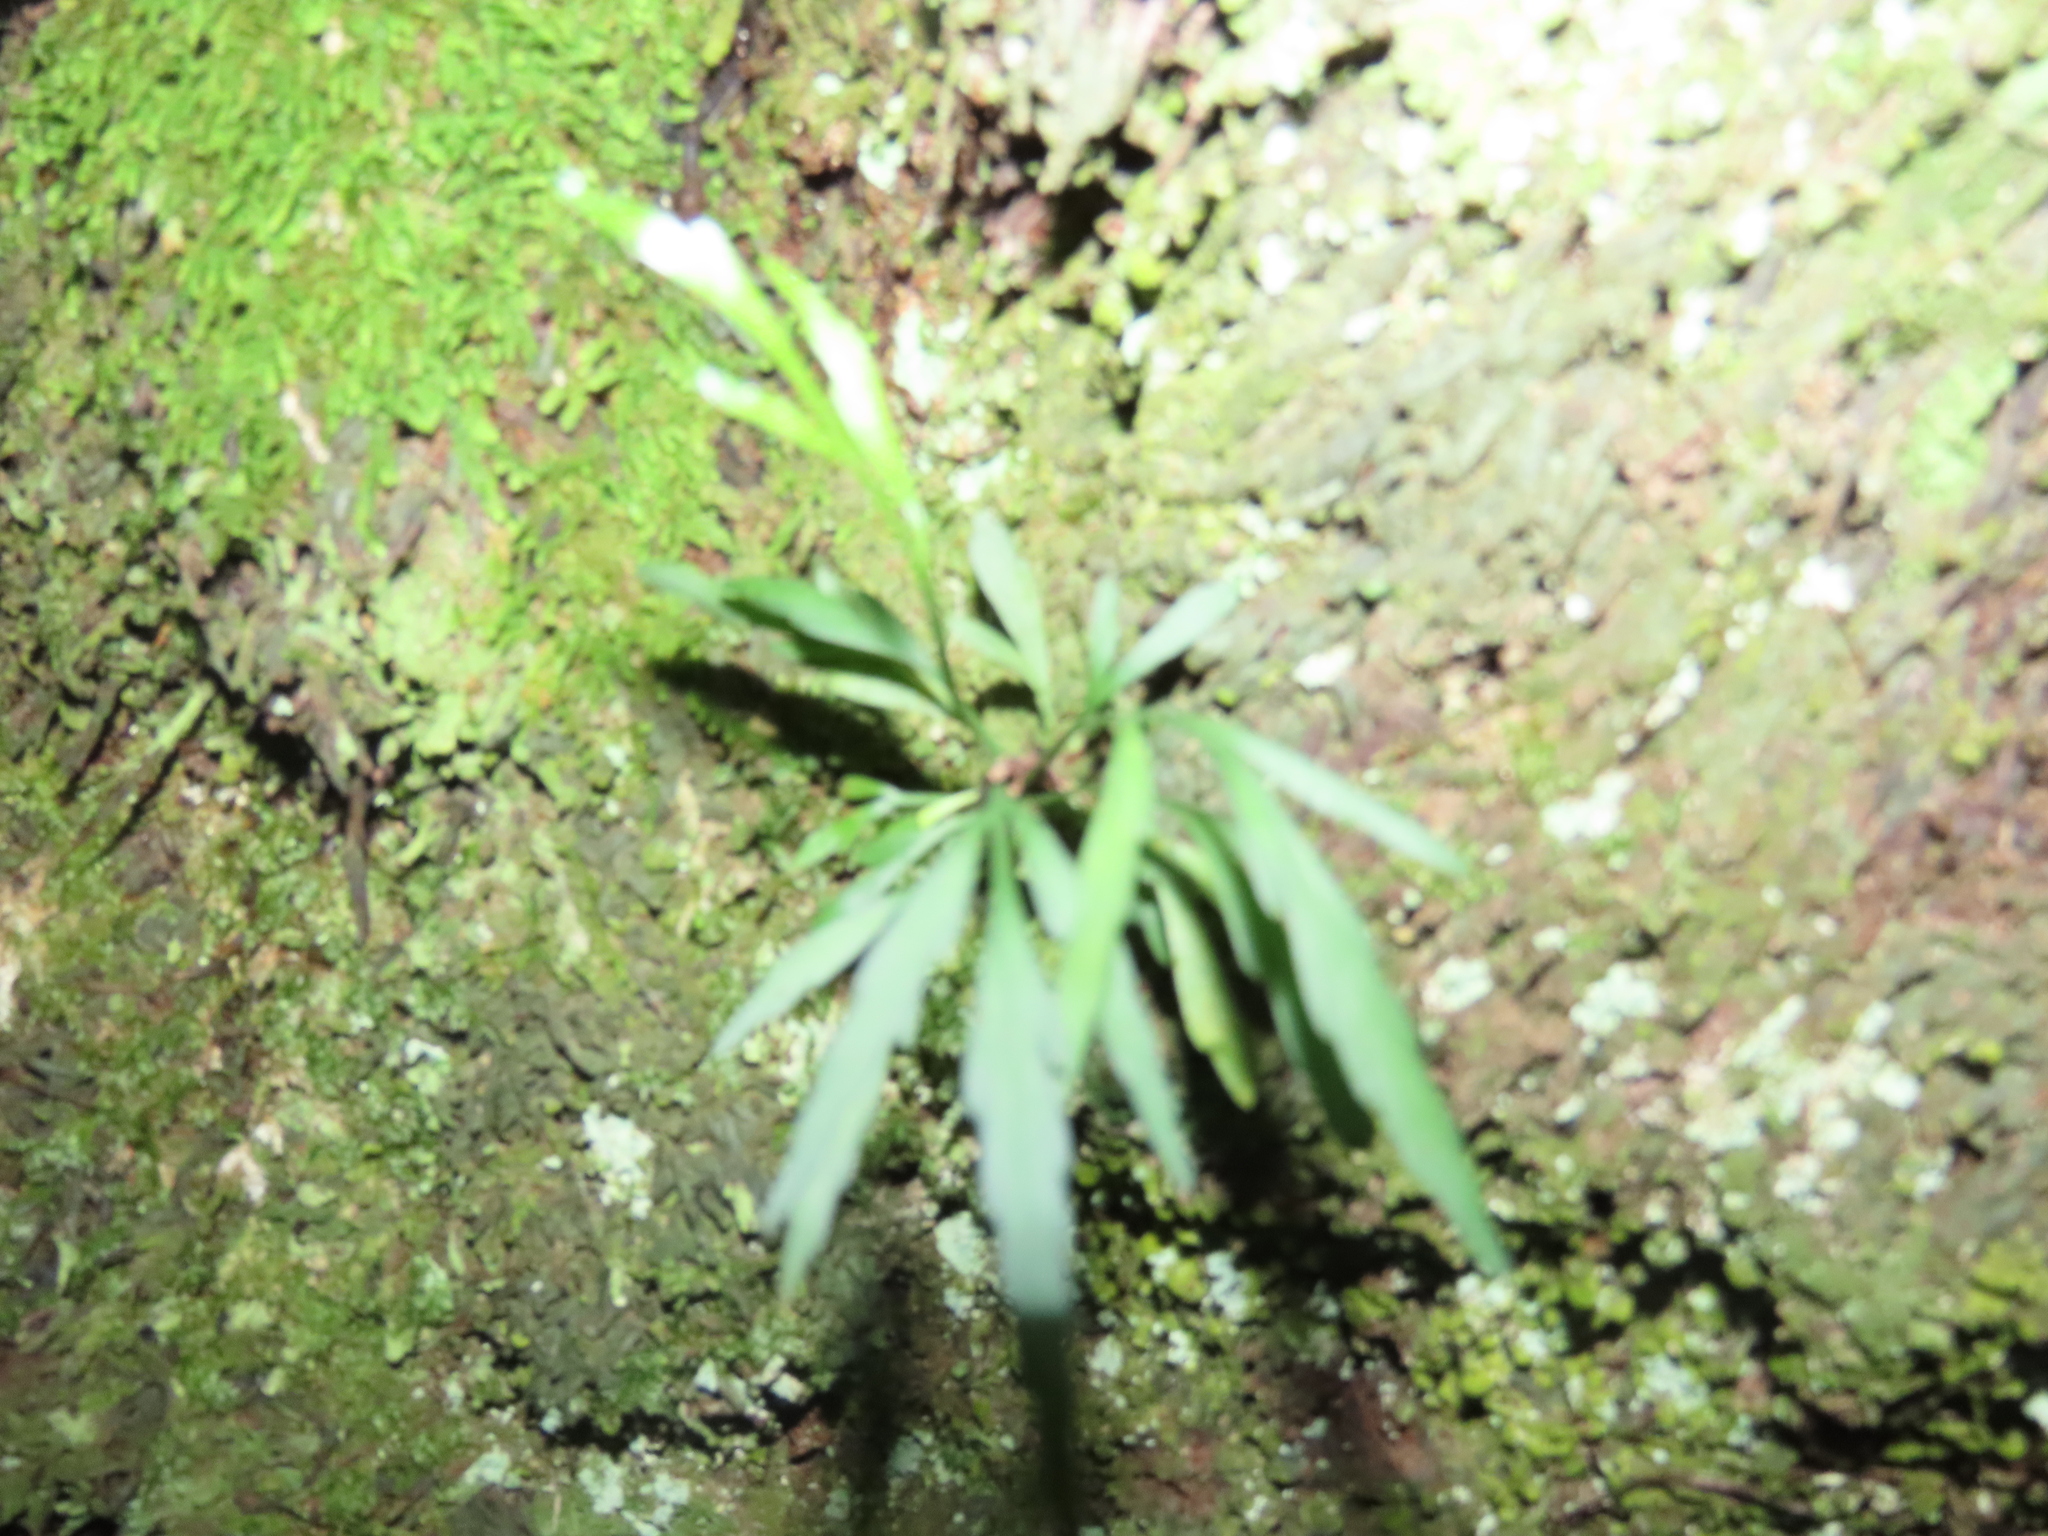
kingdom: Plantae
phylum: Tracheophyta
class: Polypodiopsida
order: Polypodiales
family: Aspleniaceae
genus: Asplenium
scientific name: Asplenium flaccidum
